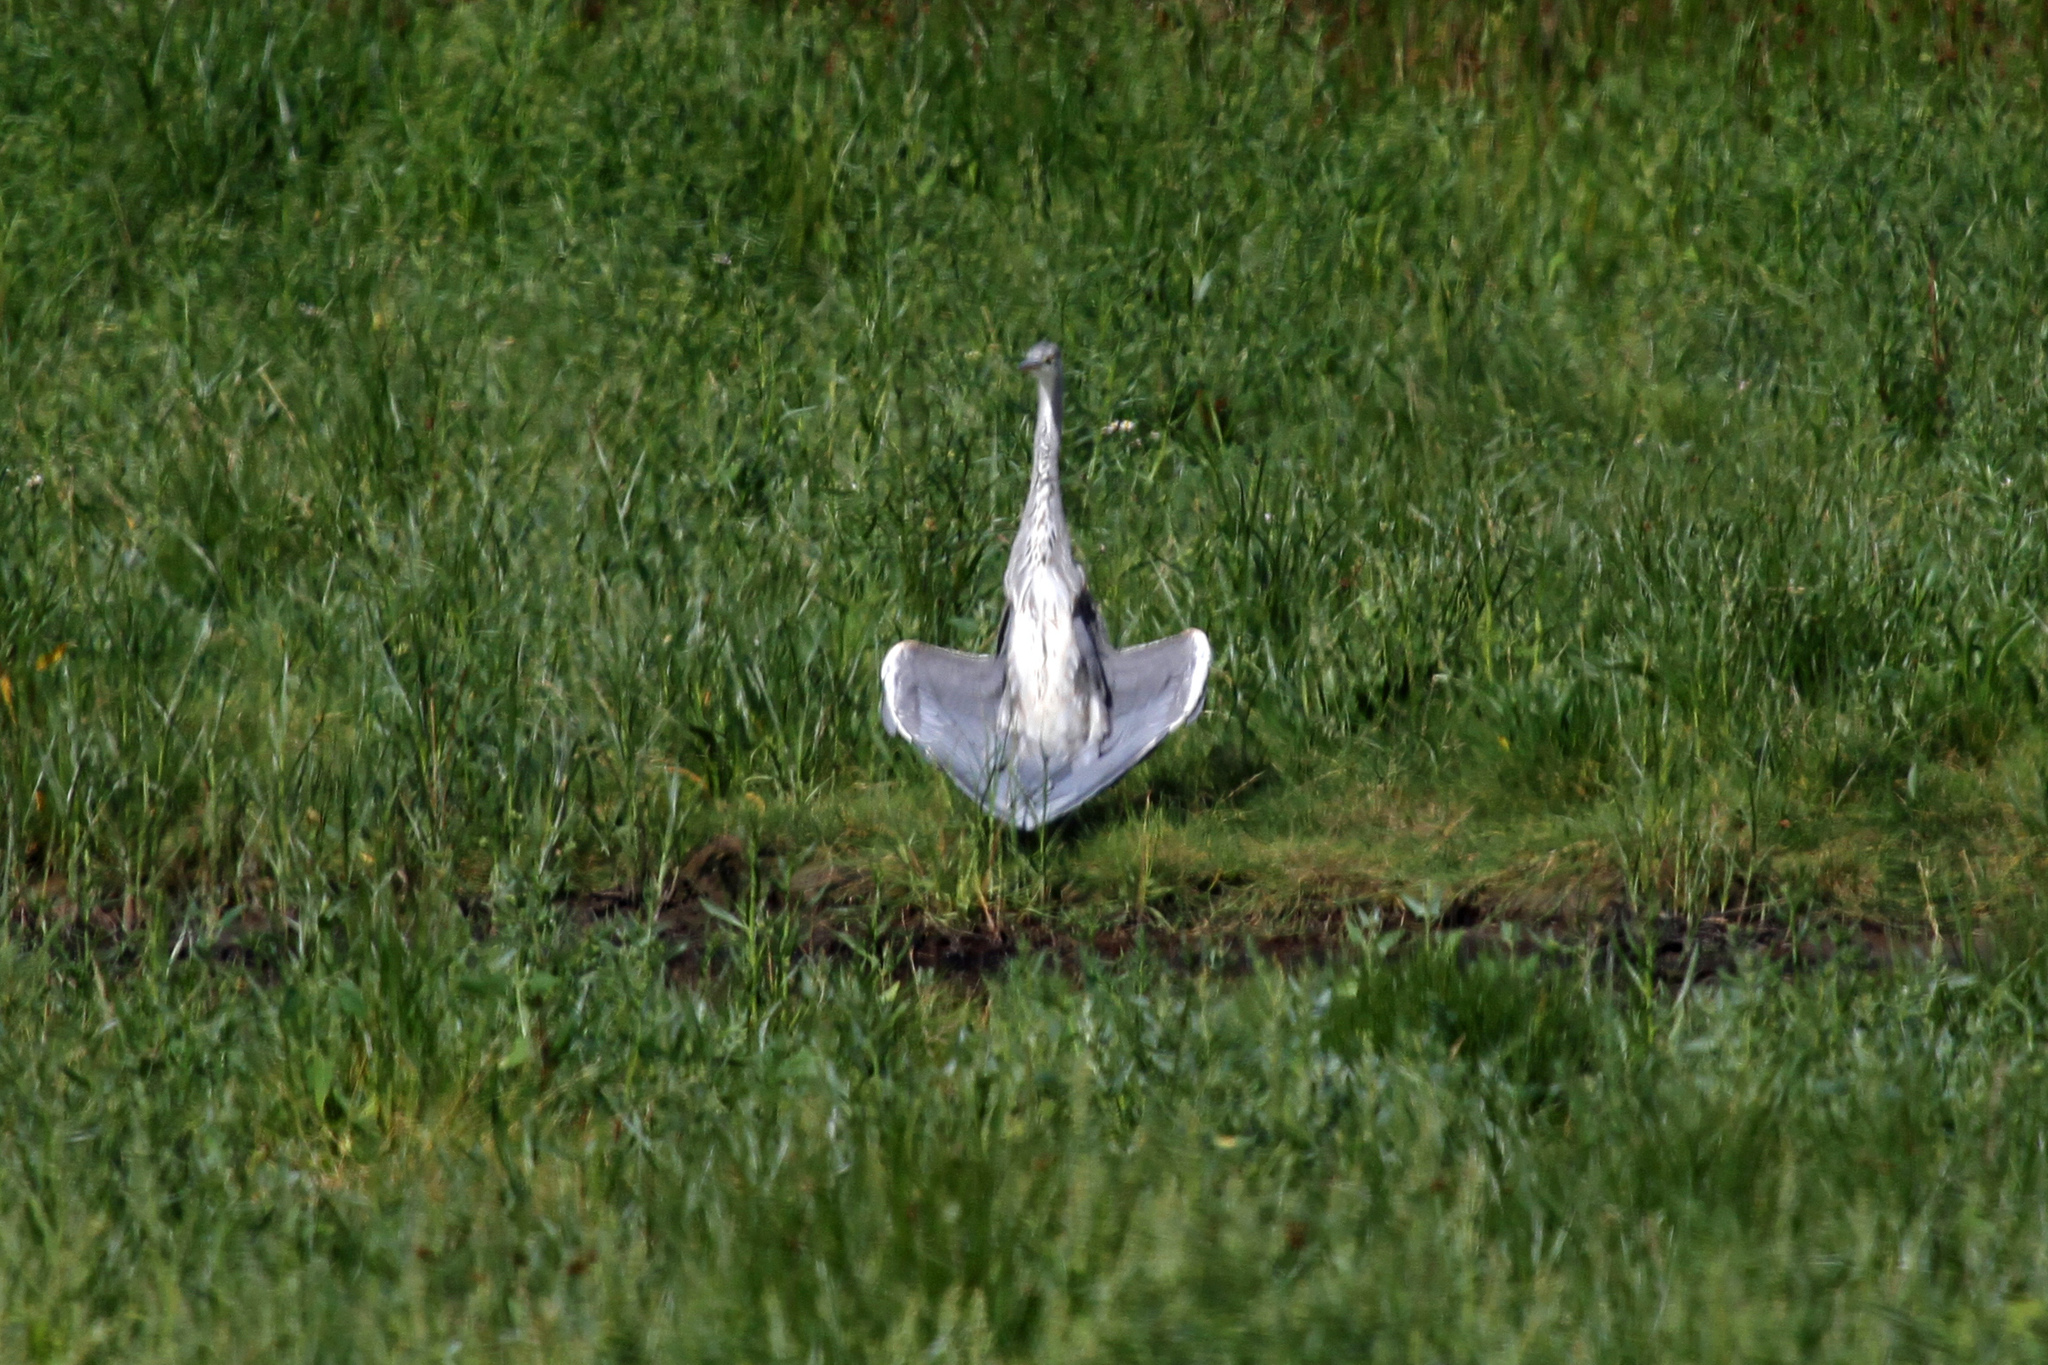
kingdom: Animalia
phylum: Chordata
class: Aves
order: Pelecaniformes
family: Ardeidae
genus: Ardea
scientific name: Ardea cinerea
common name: Grey heron
